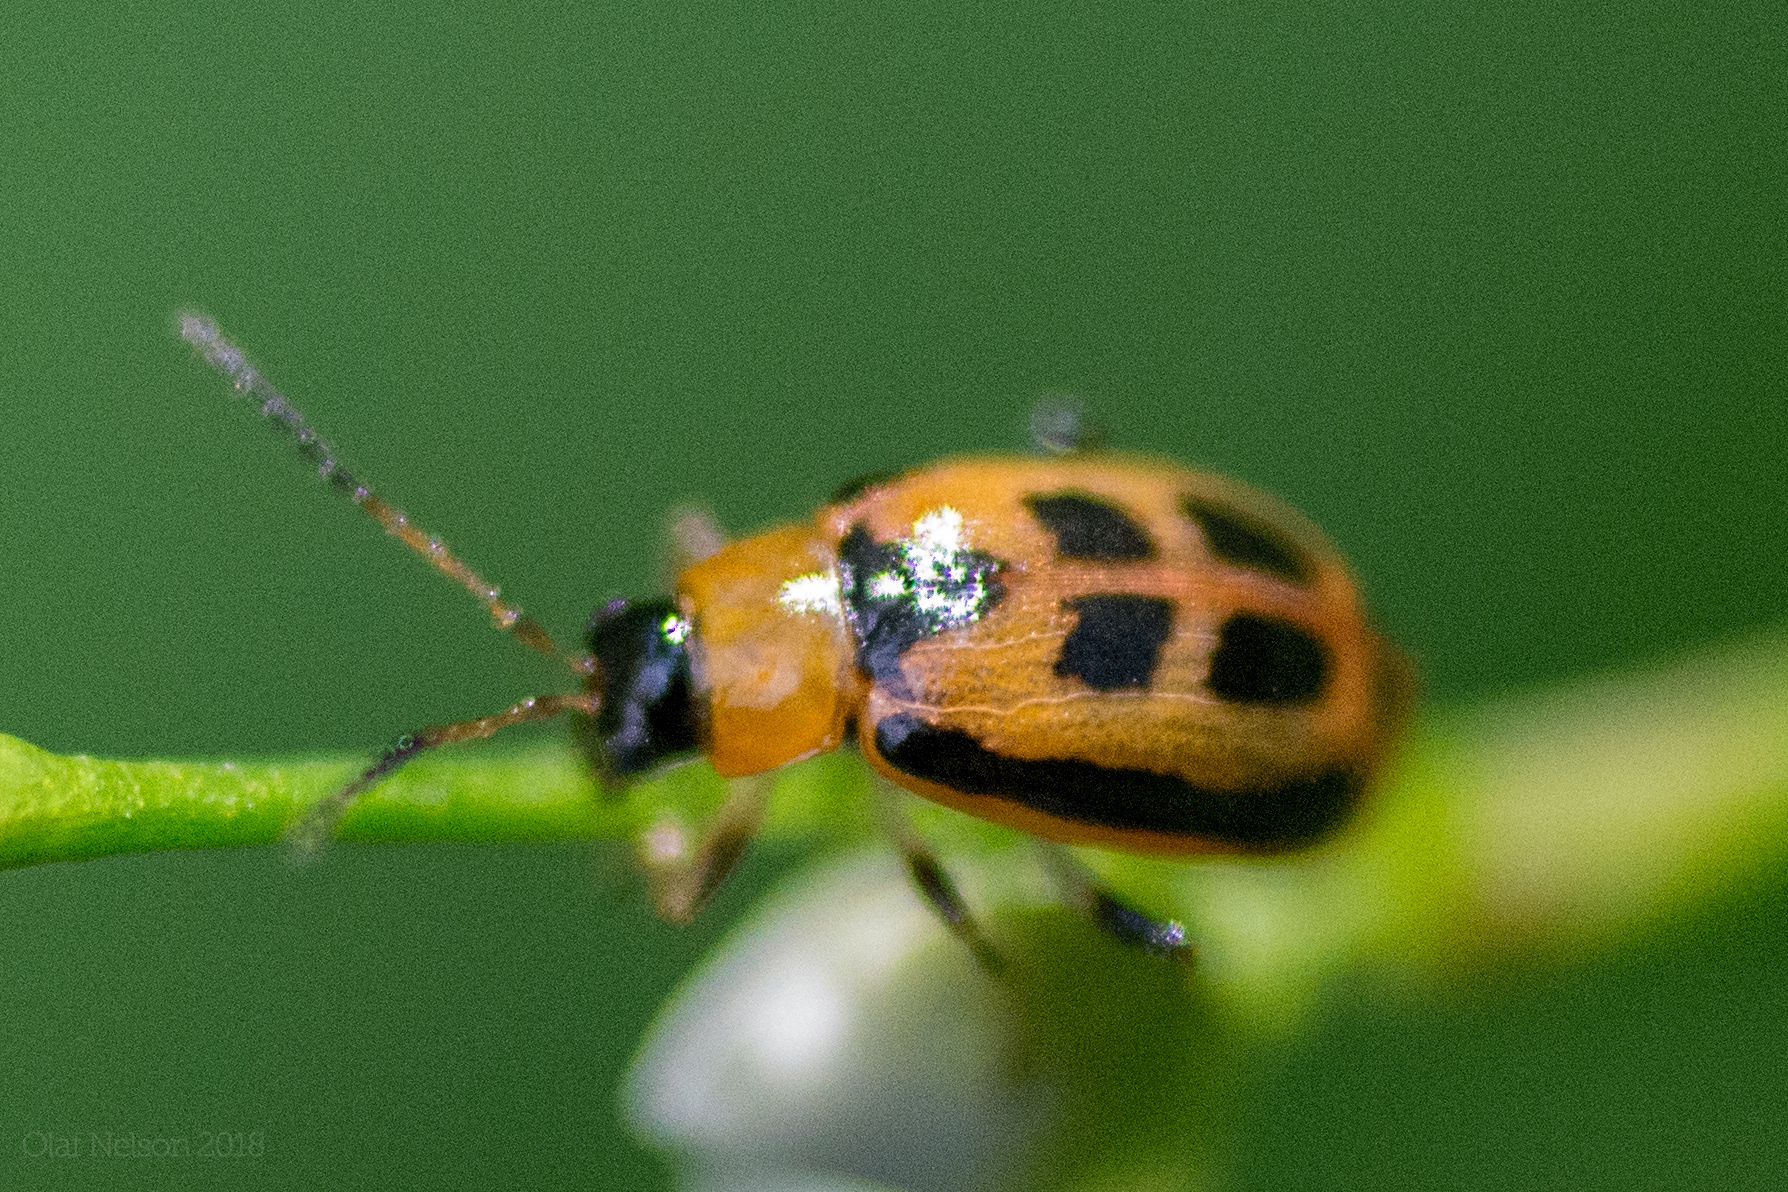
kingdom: Animalia
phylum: Arthropoda
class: Insecta
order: Coleoptera
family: Chrysomelidae
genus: Cerotoma
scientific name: Cerotoma trifurcata
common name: Bean leaf beetle
